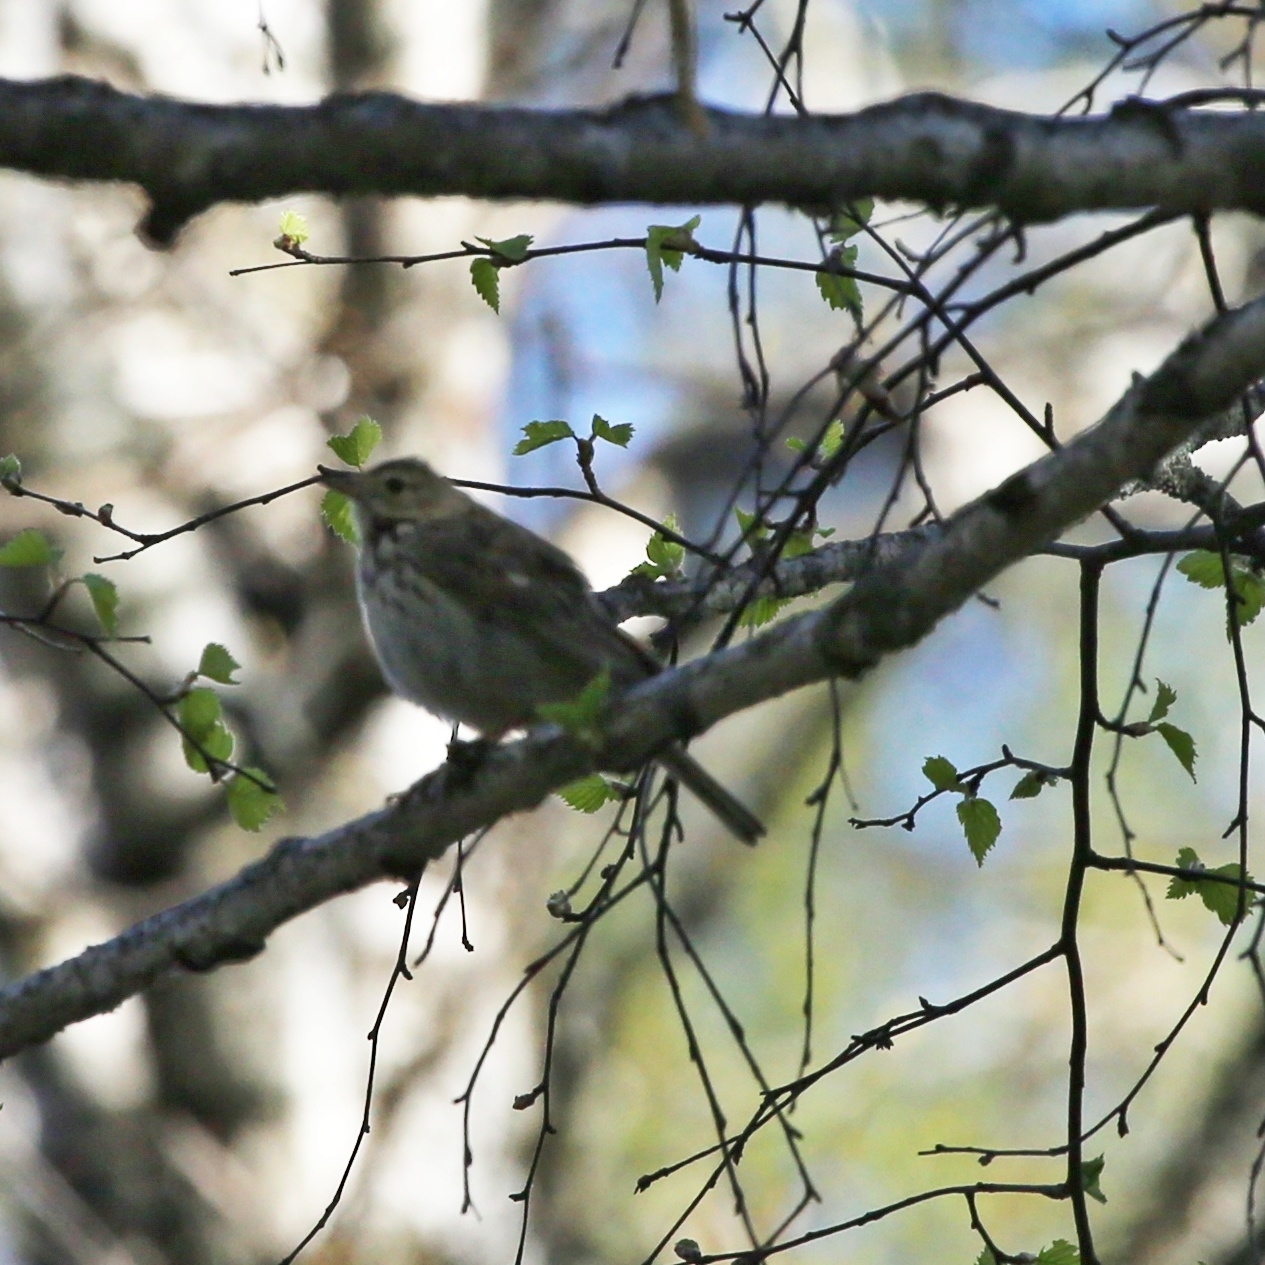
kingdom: Animalia
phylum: Chordata
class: Aves
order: Passeriformes
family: Motacillidae
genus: Anthus
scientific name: Anthus trivialis
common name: Tree pipit
